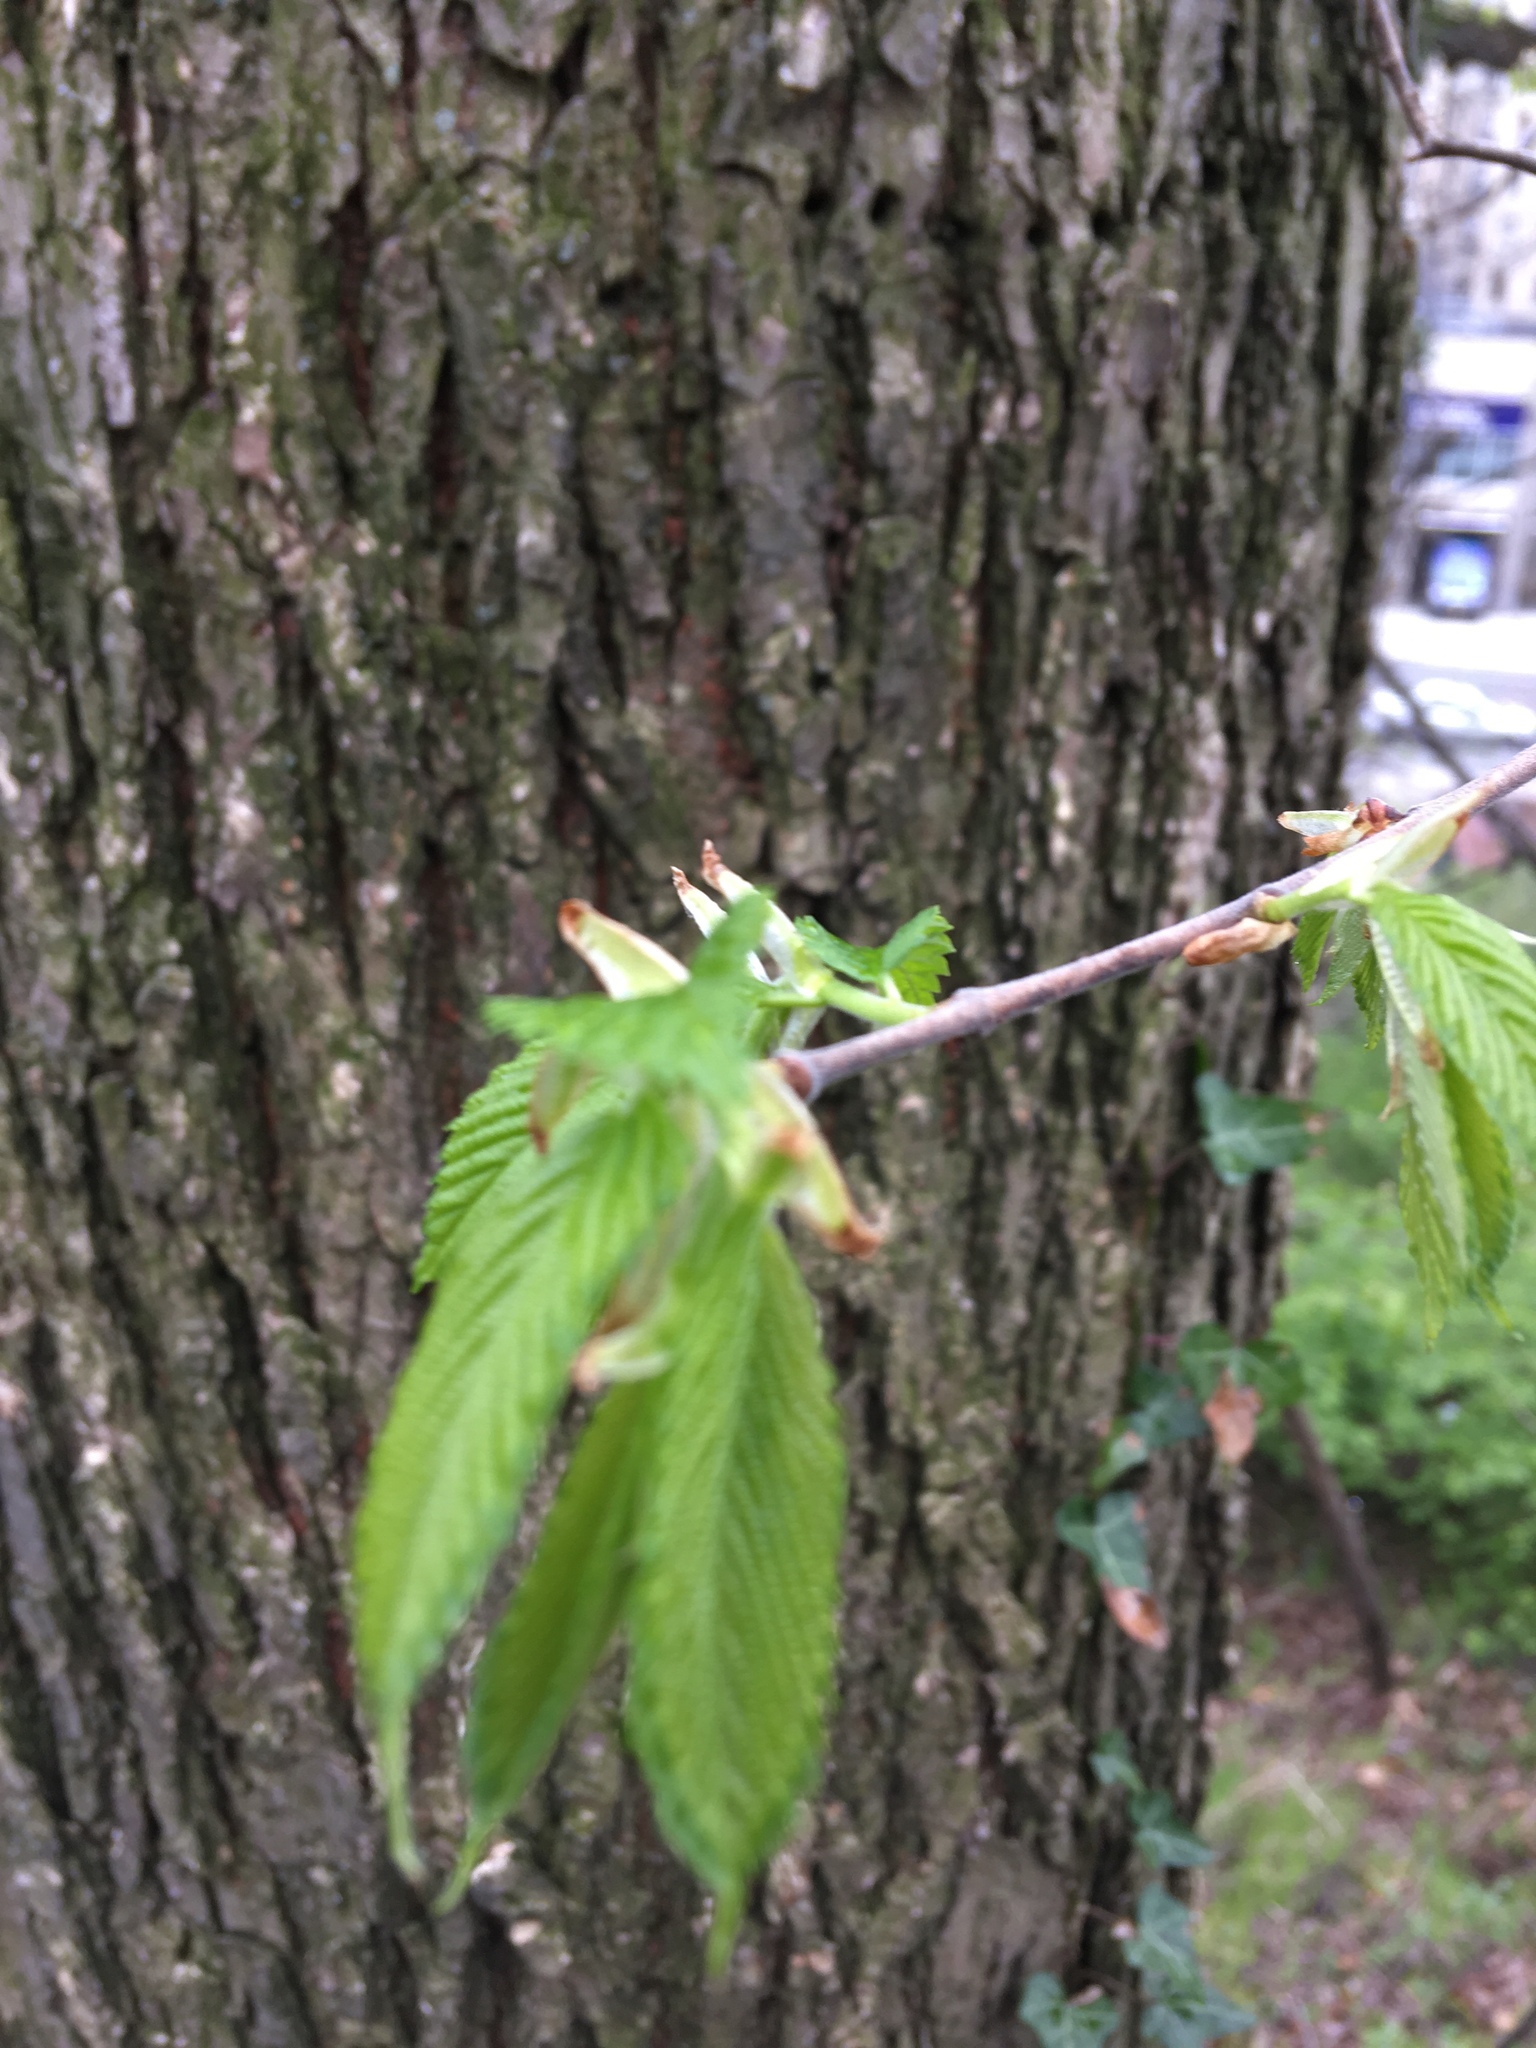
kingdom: Plantae
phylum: Tracheophyta
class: Magnoliopsida
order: Rosales
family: Ulmaceae
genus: Ulmus
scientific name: Ulmus americana
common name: American elm
